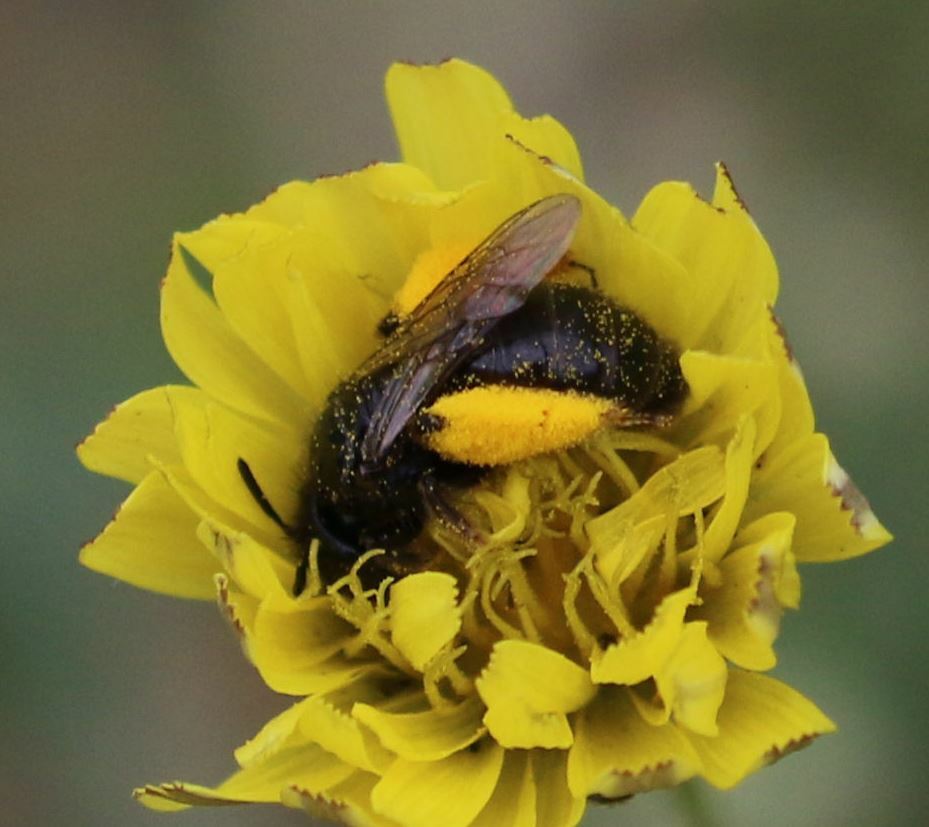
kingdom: Animalia
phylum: Arthropoda
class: Insecta
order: Hymenoptera
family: Andrenidae
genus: Panurgus
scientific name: Panurgus dentipes
